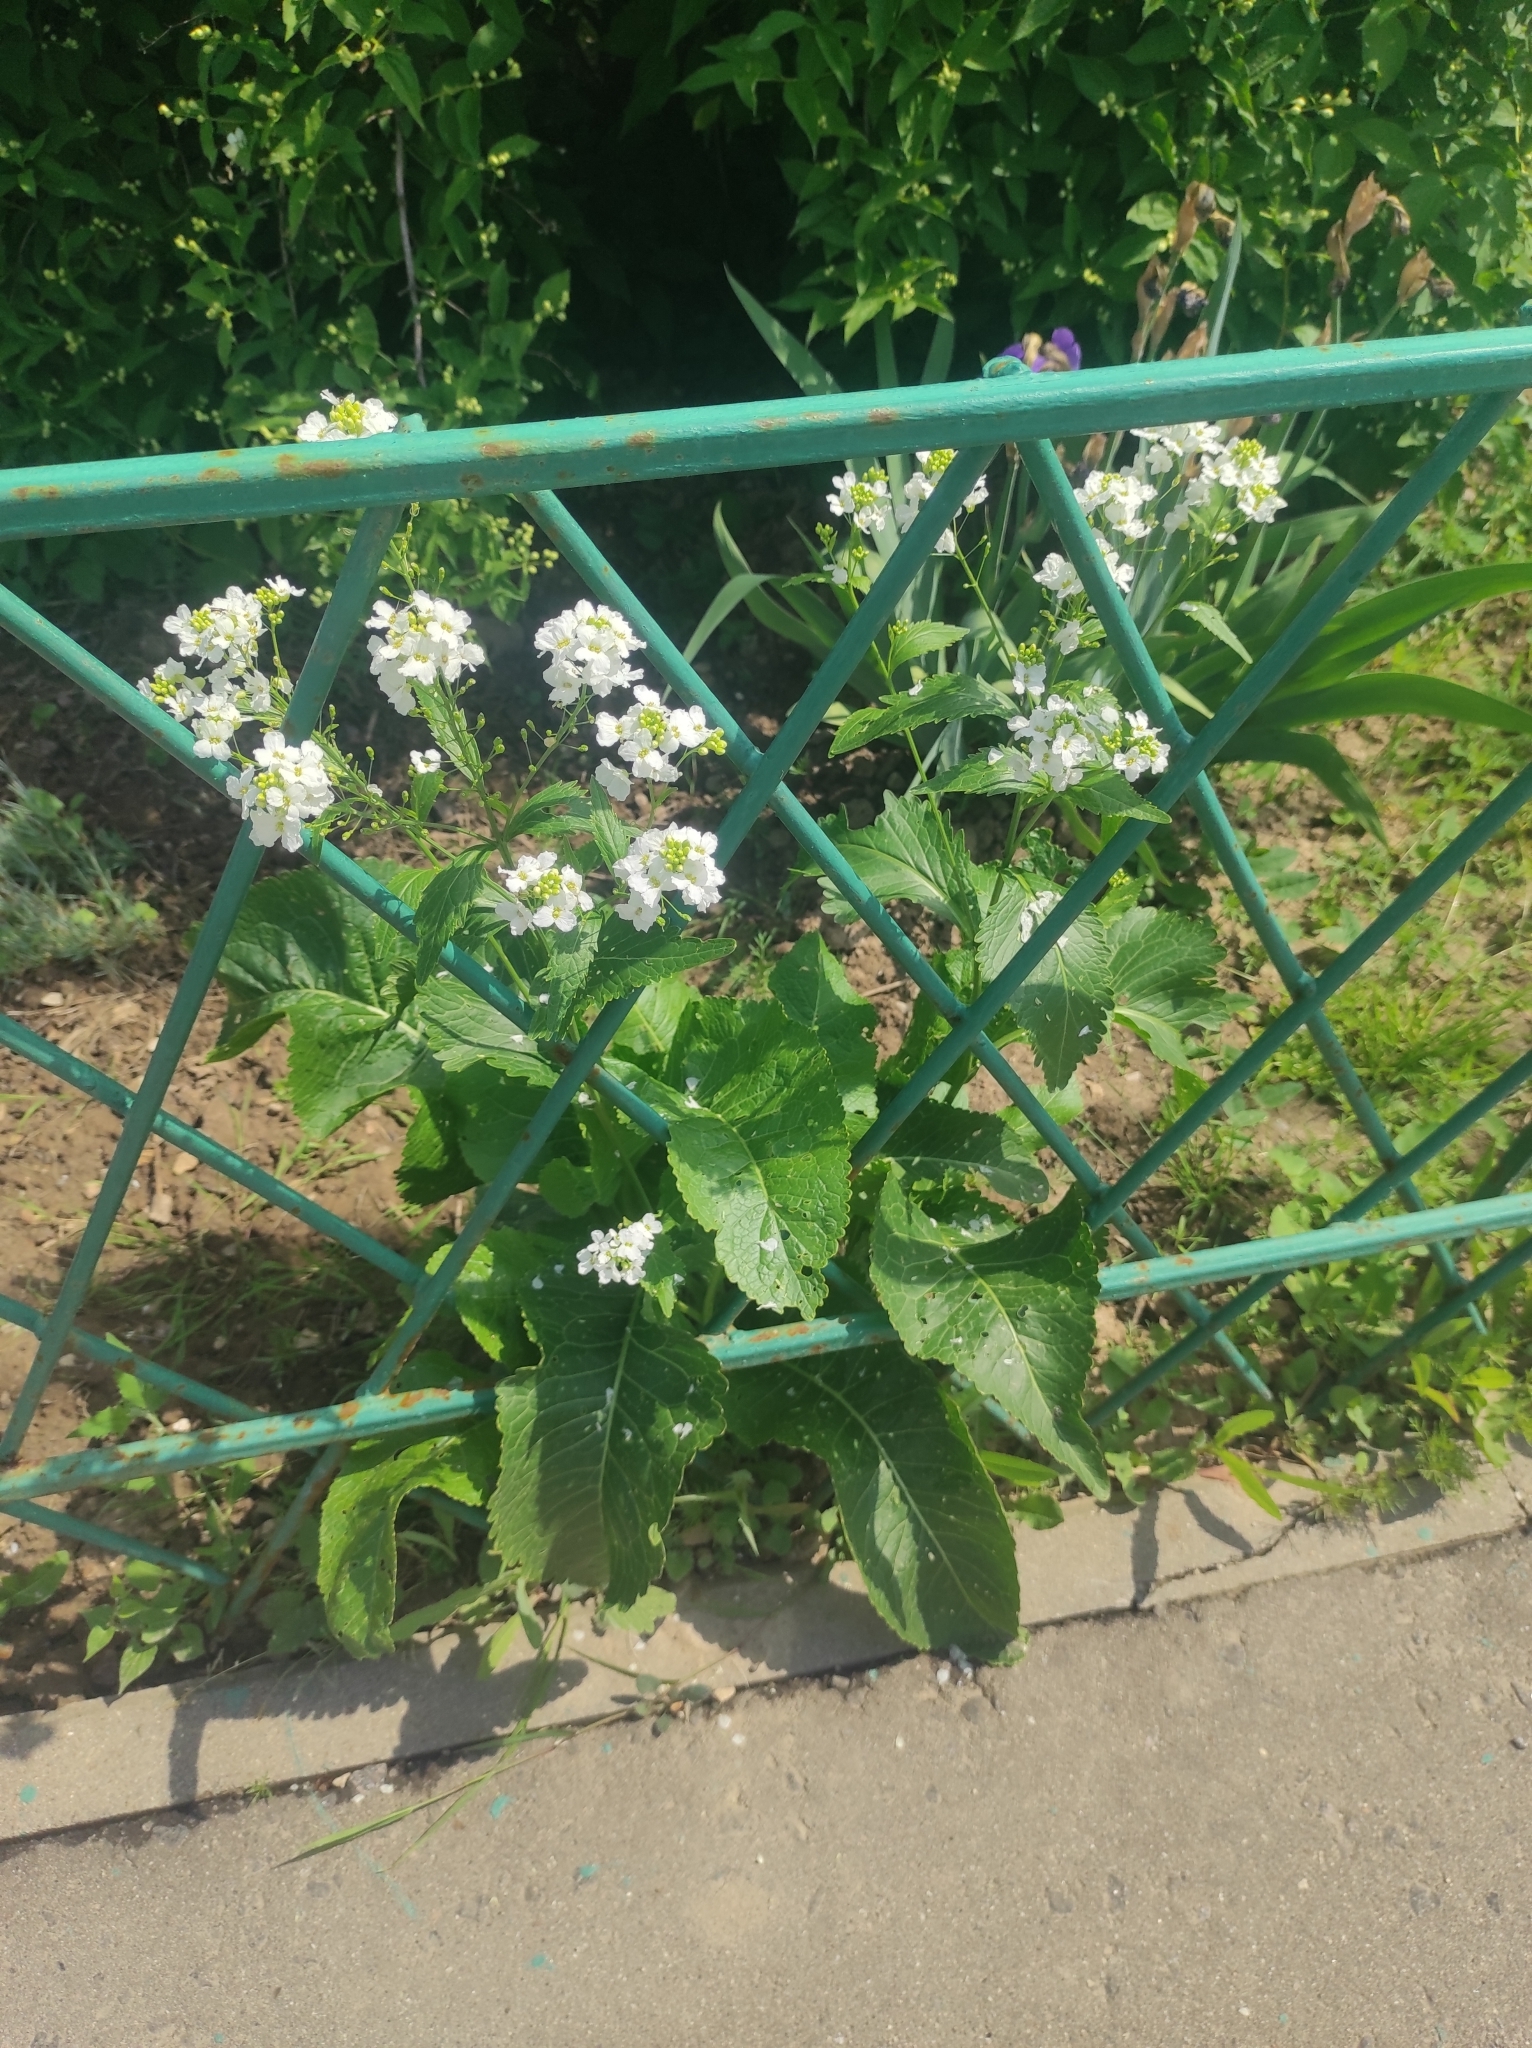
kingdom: Plantae
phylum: Tracheophyta
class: Magnoliopsida
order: Brassicales
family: Brassicaceae
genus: Armoracia
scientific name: Armoracia rusticana
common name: Horseradish
